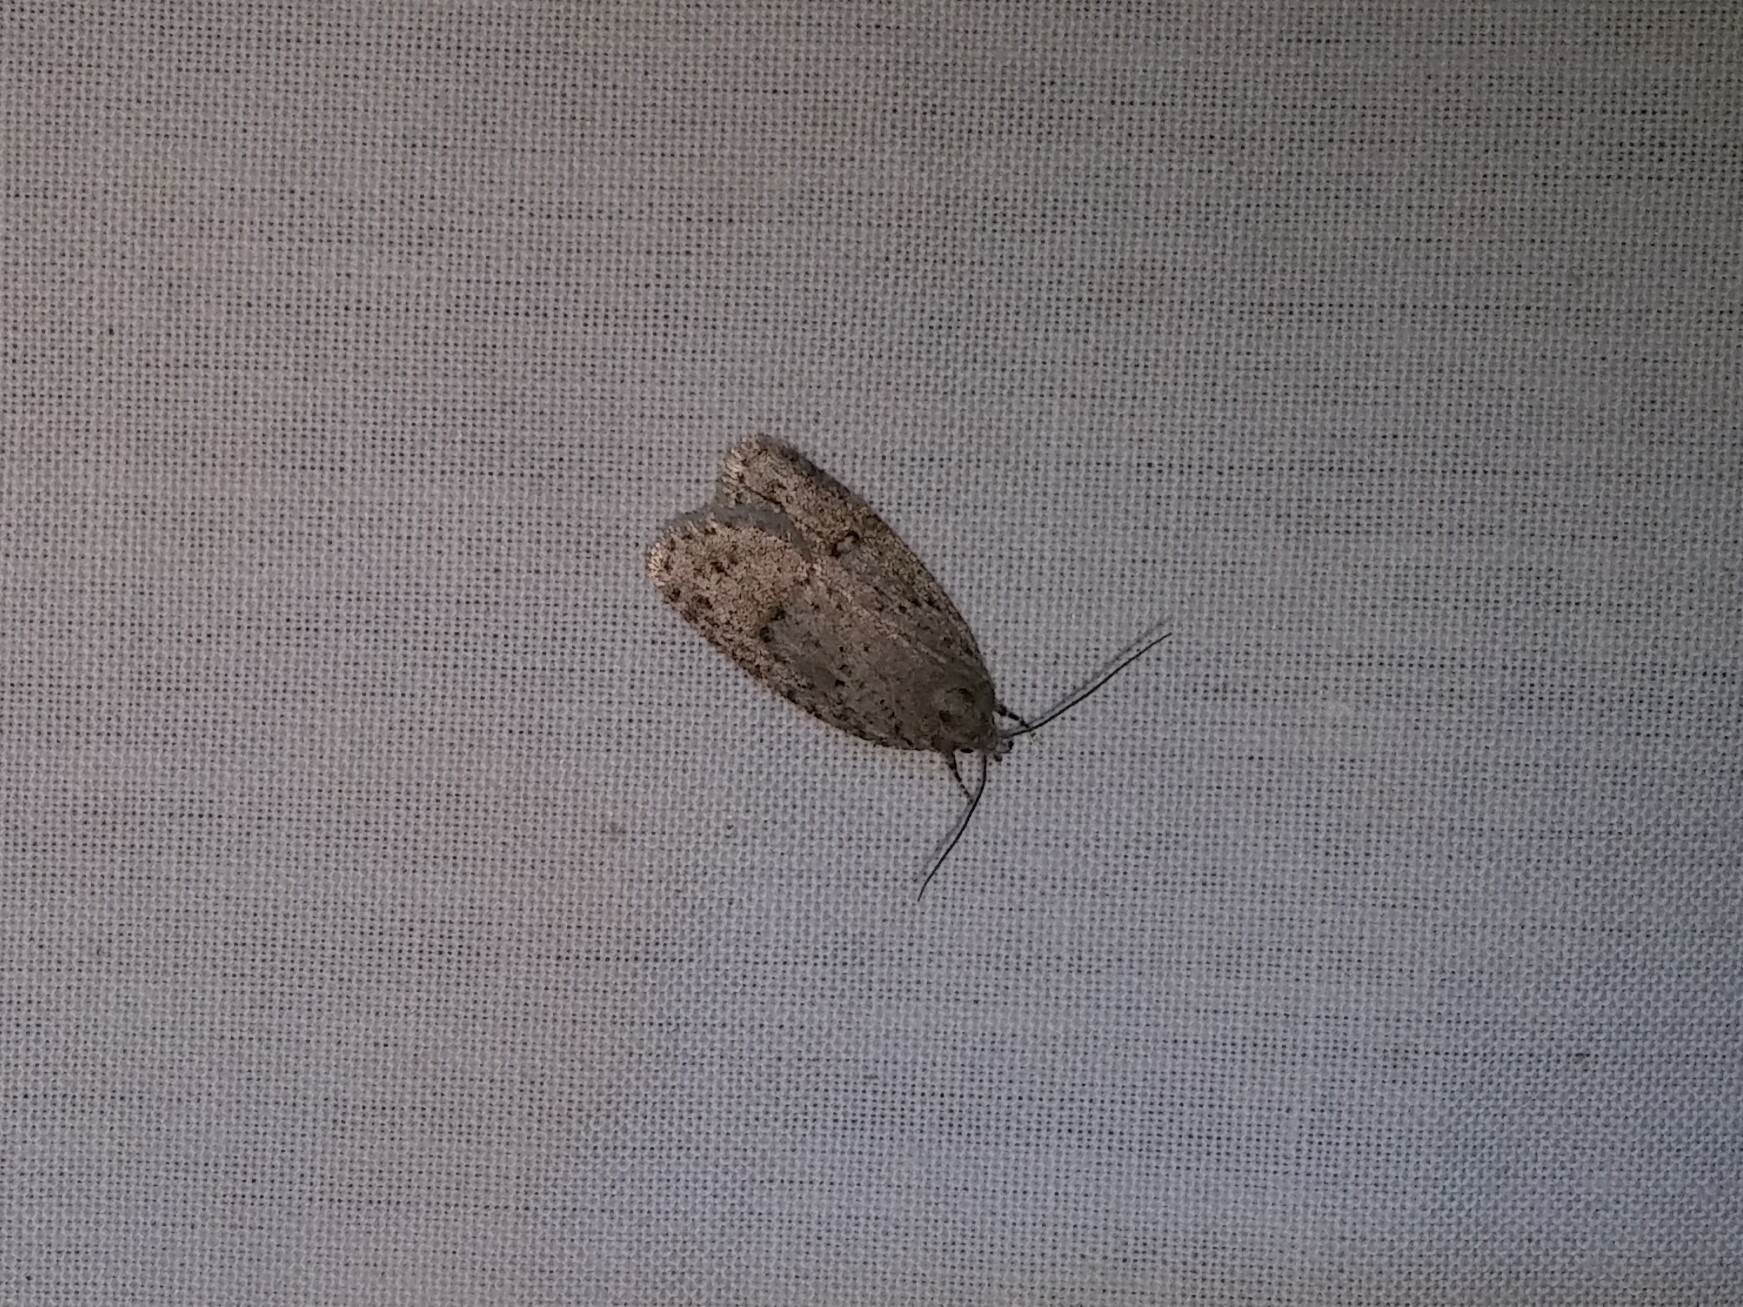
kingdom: Animalia
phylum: Arthropoda
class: Insecta
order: Lepidoptera
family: Depressariidae
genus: Bibarrambla
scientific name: Bibarrambla allenella
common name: Bog bibarrambla moth
